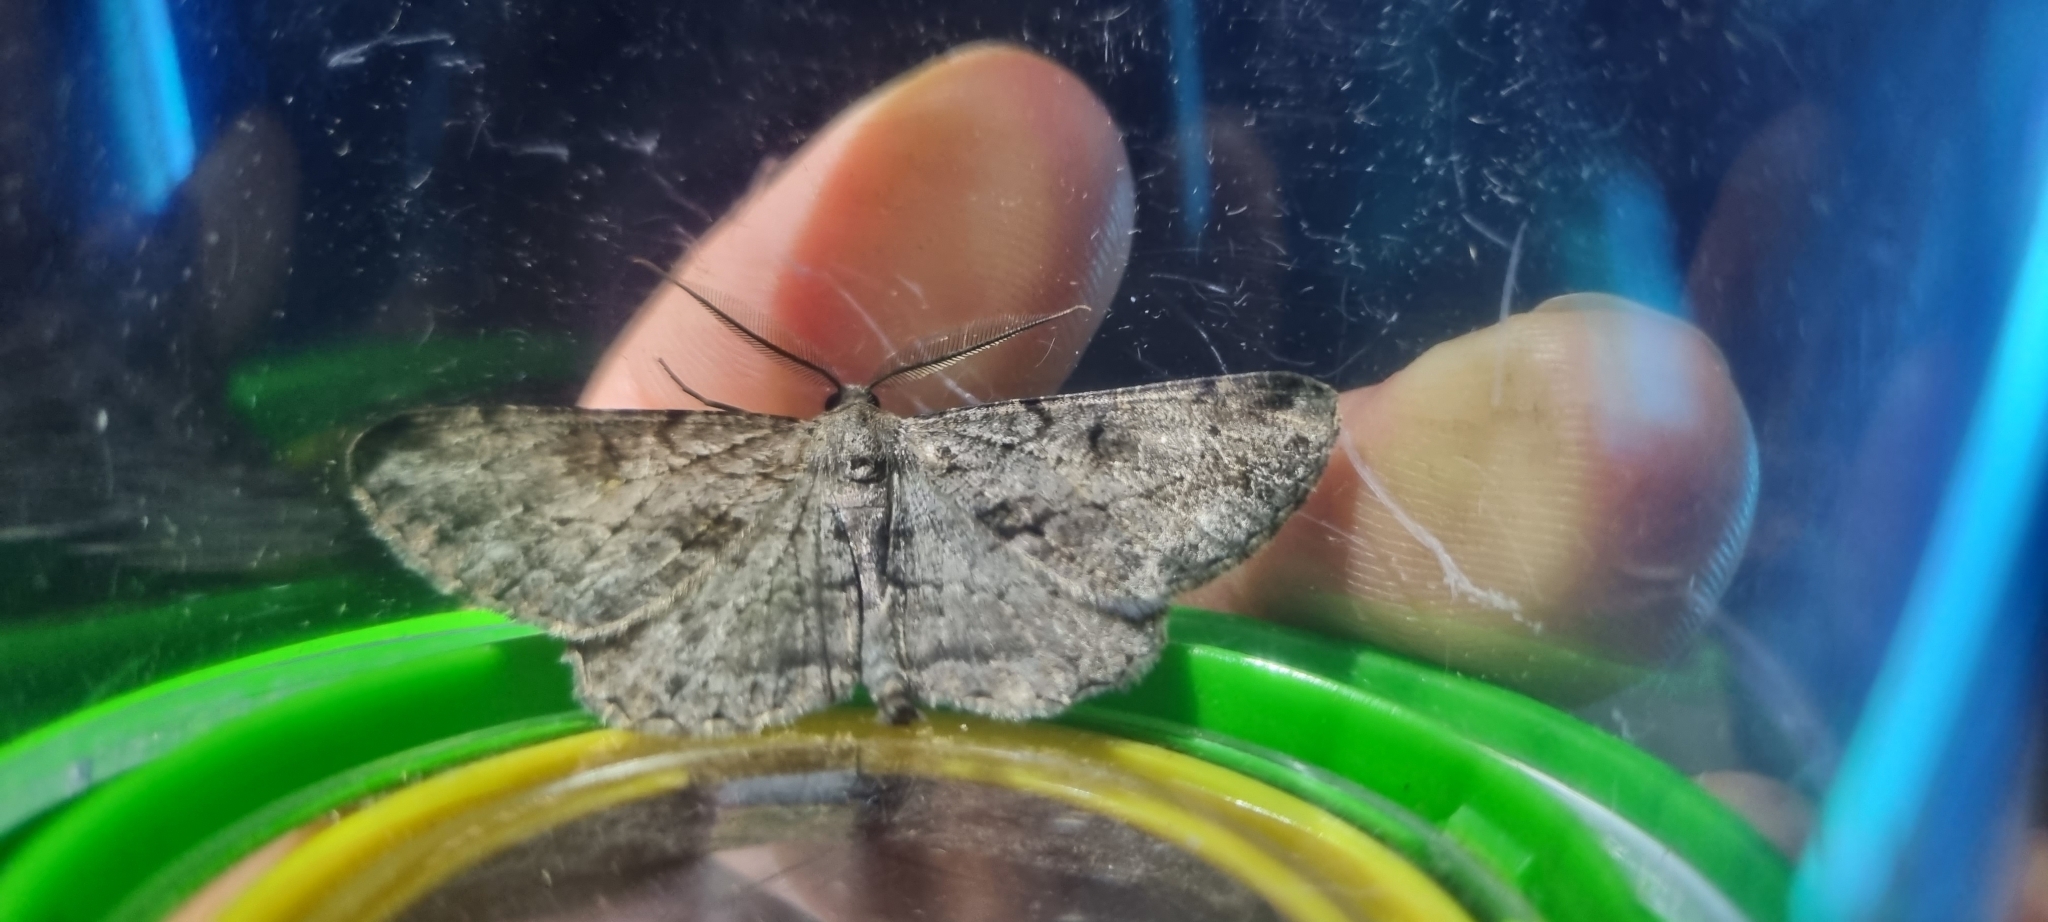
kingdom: Animalia
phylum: Arthropoda
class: Insecta
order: Lepidoptera
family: Geometridae
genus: Peribatodes
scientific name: Peribatodes rhomboidaria
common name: Willow beauty
